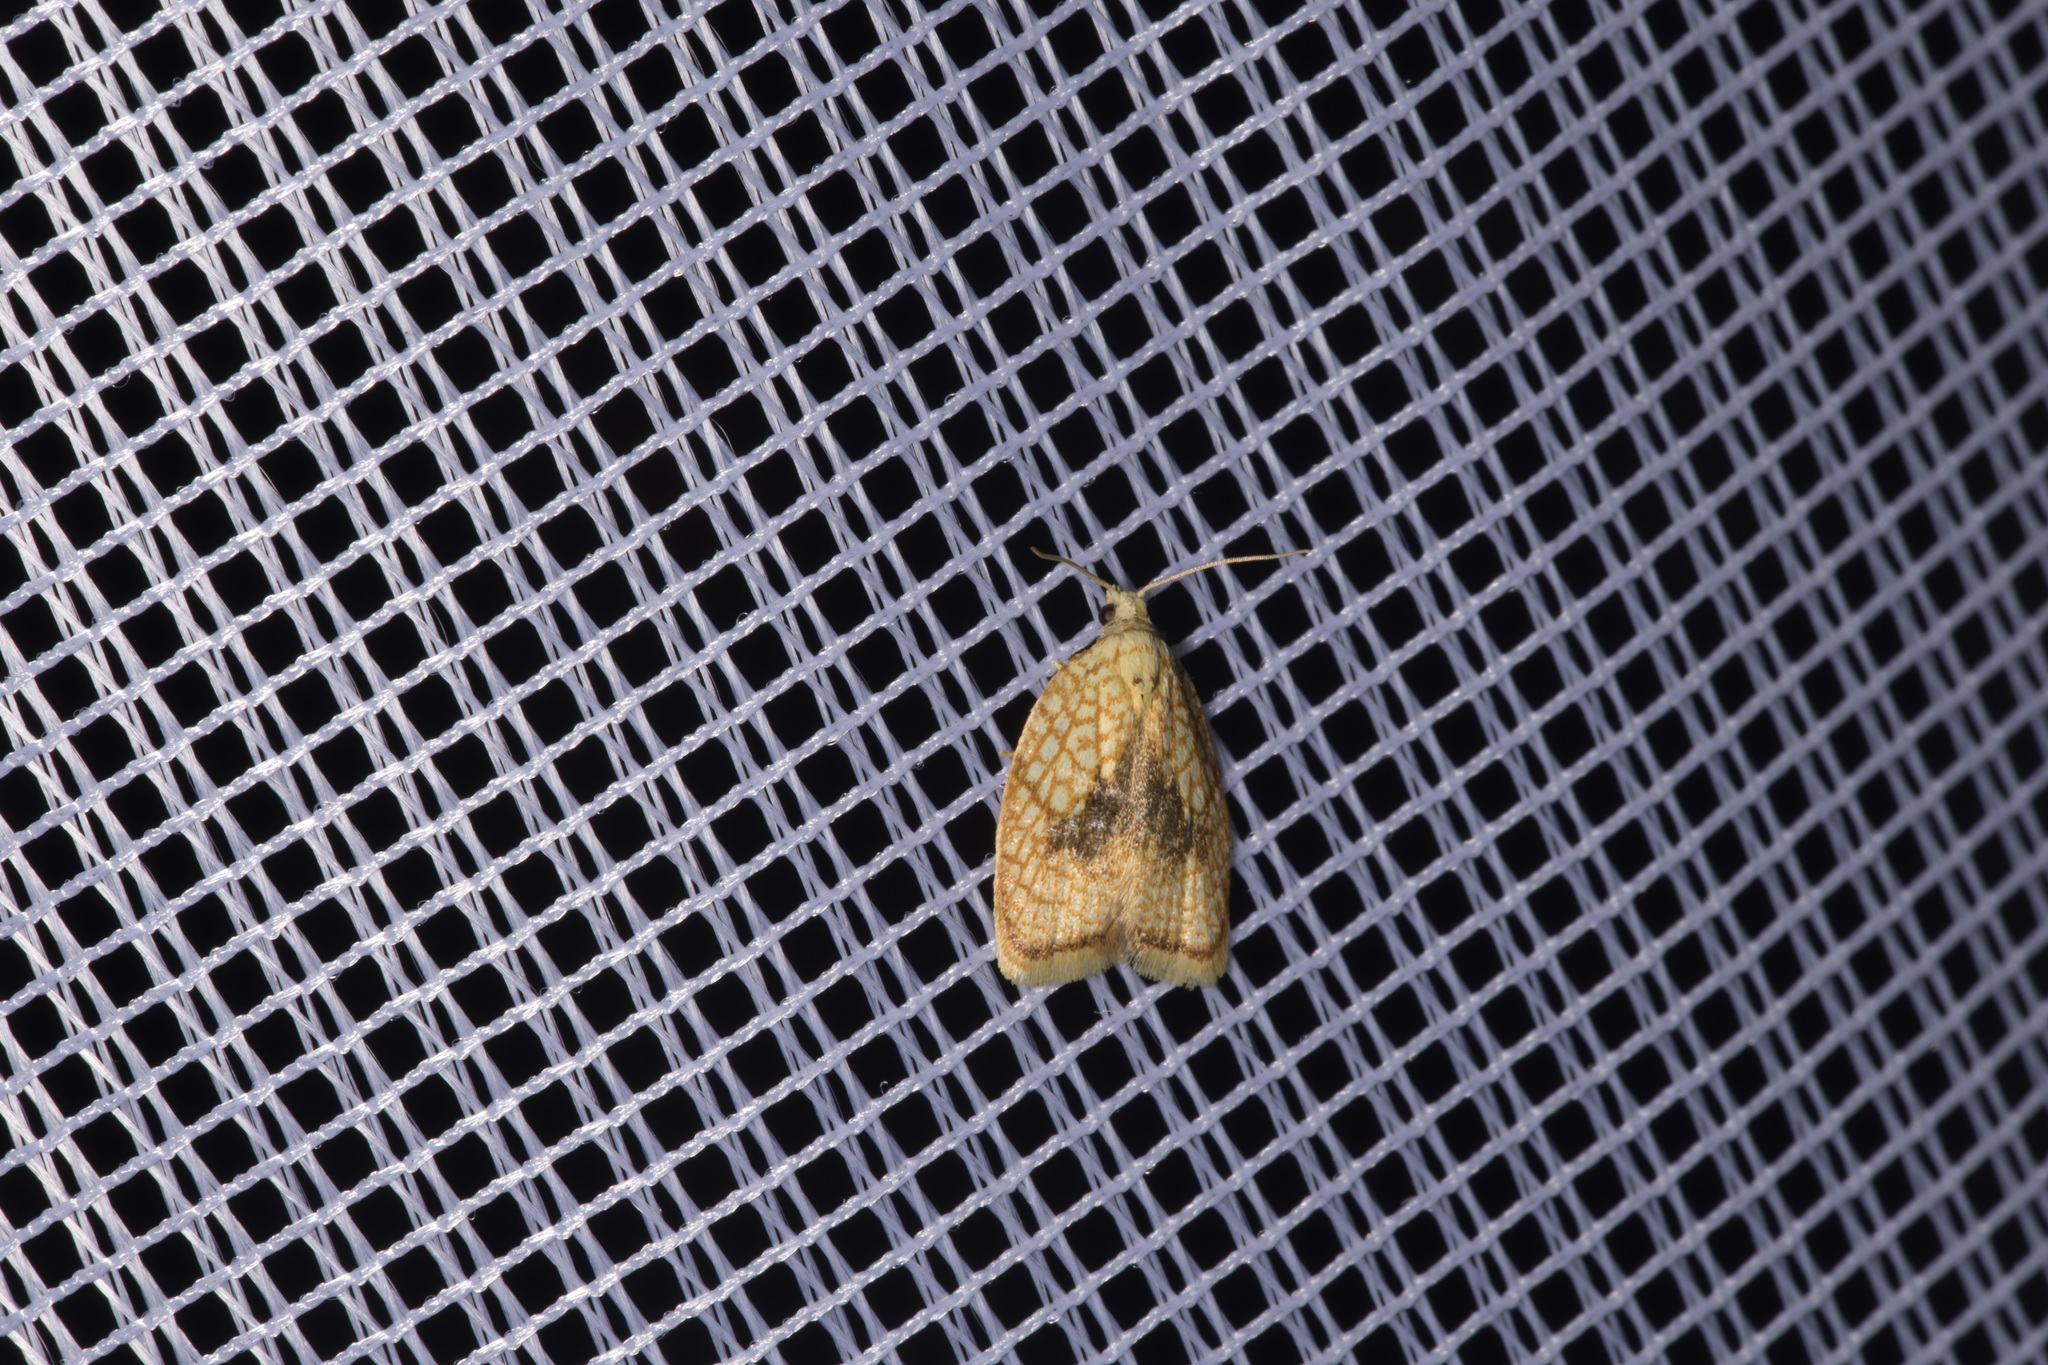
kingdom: Animalia
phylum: Arthropoda
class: Insecta
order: Lepidoptera
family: Tortricidae
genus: Acleris
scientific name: Acleris forsskaleana
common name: Maple button
